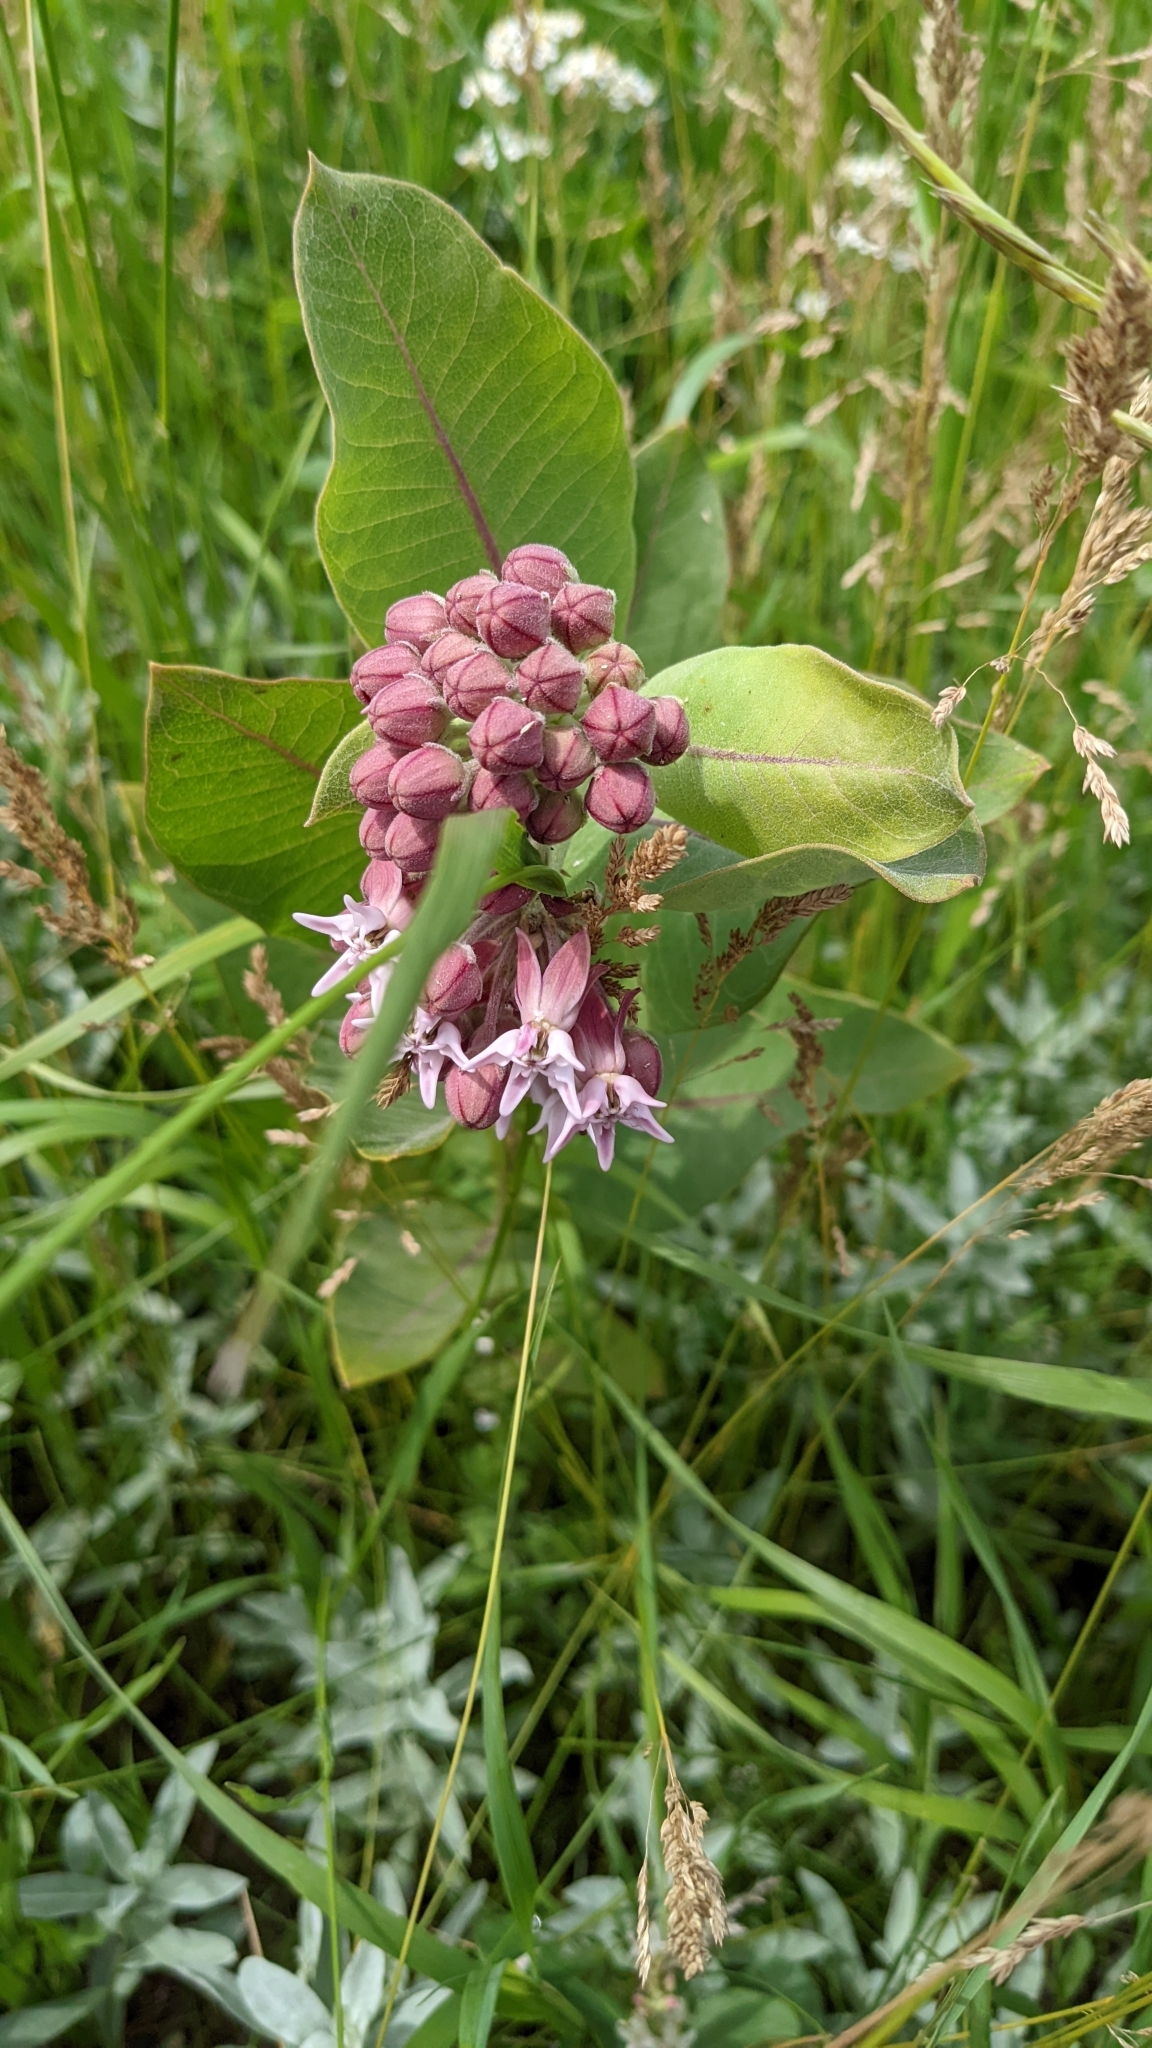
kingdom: Plantae
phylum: Tracheophyta
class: Magnoliopsida
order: Gentianales
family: Apocynaceae
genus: Asclepias
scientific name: Asclepias speciosa
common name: Showy milkweed
